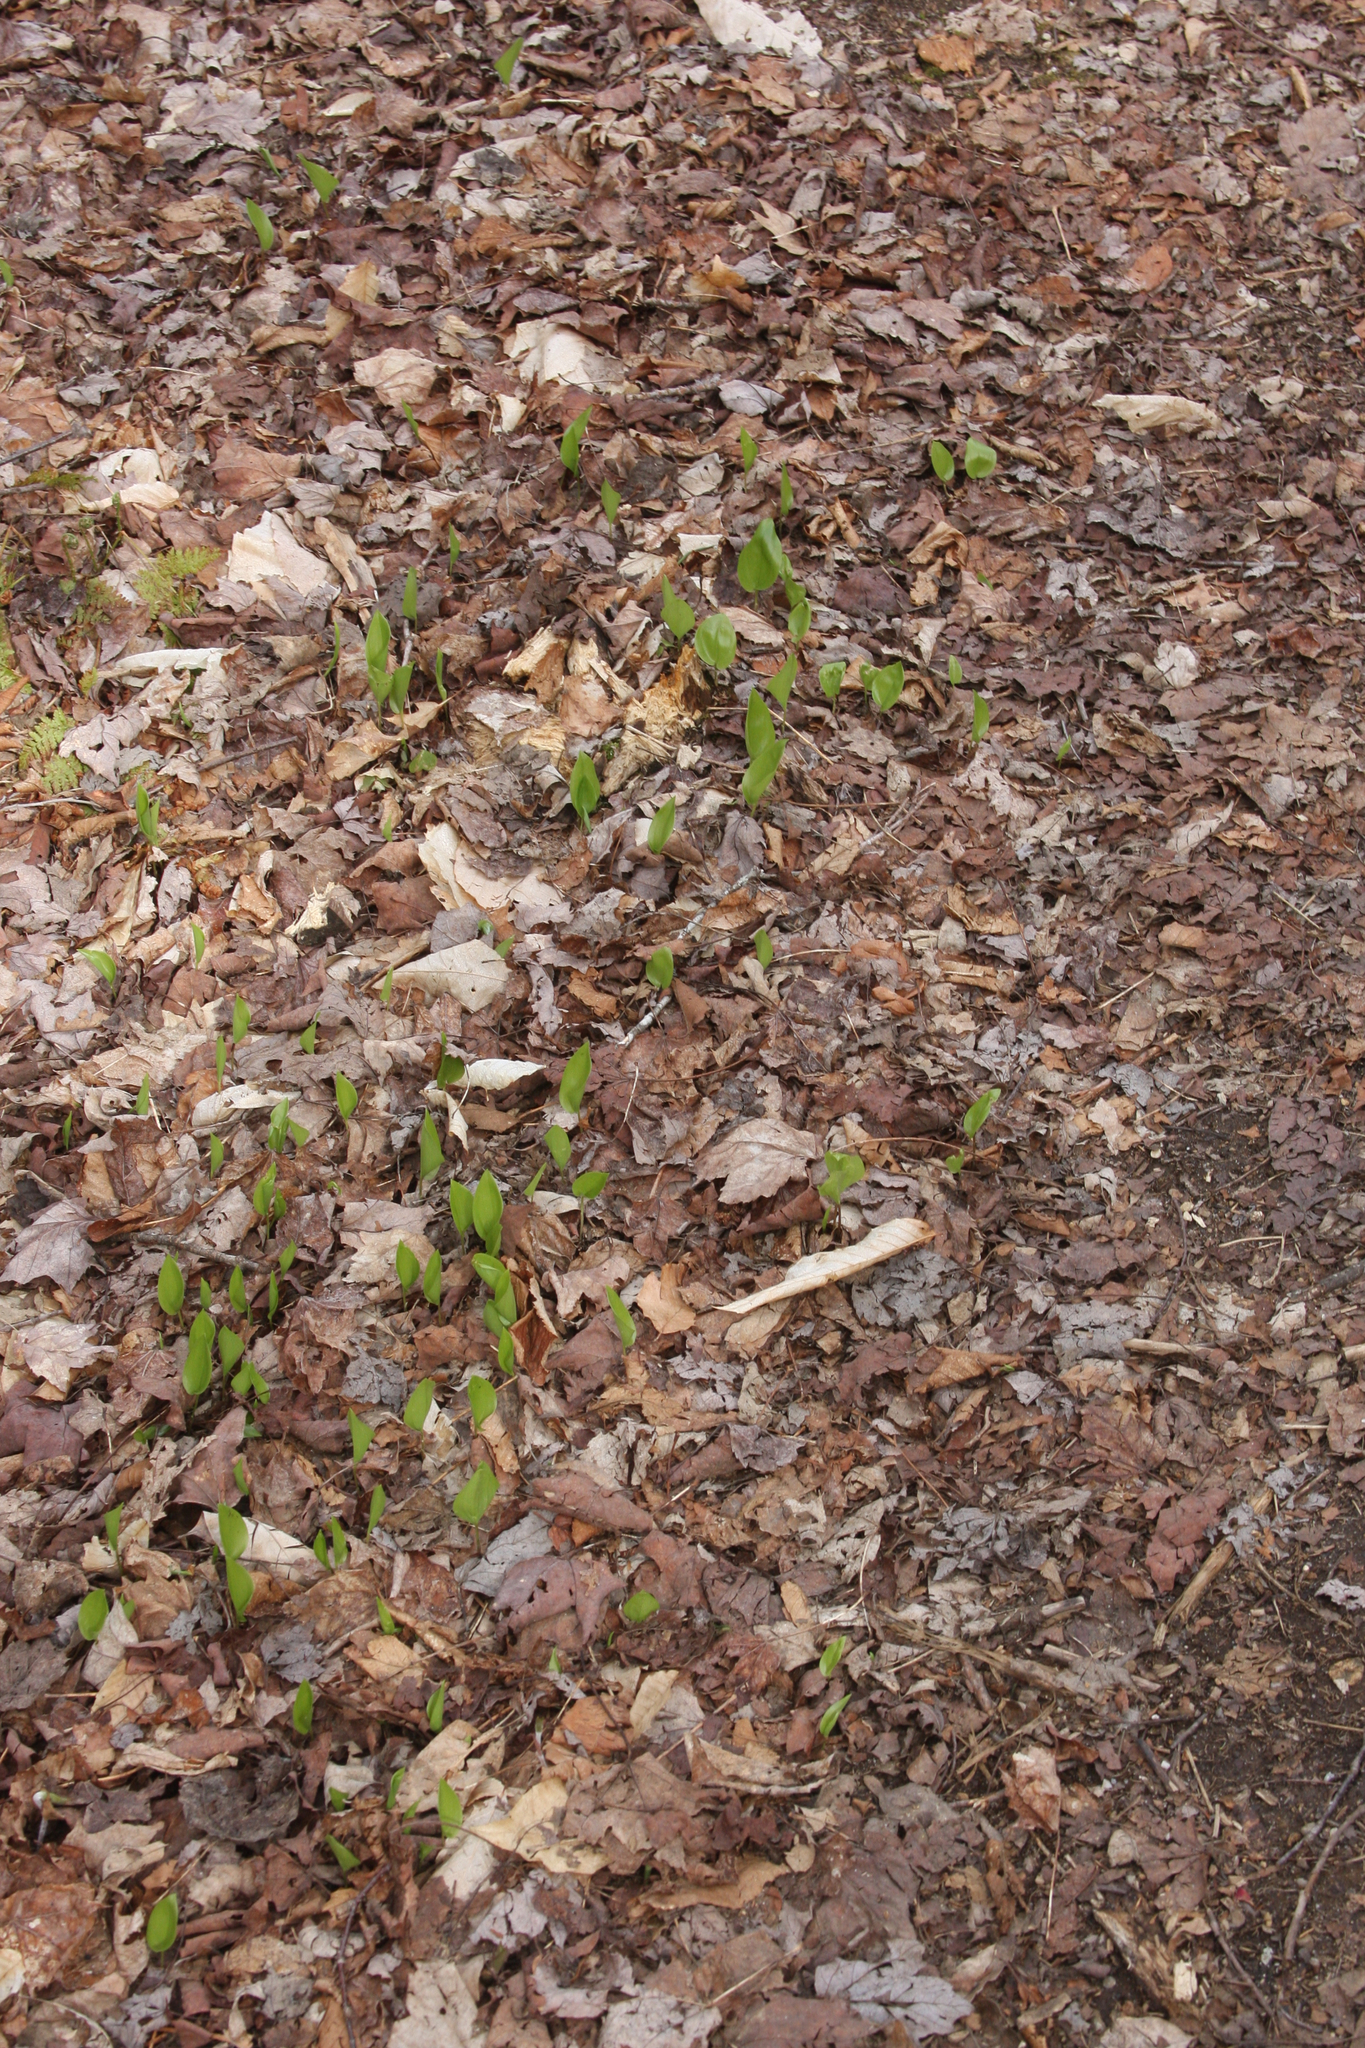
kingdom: Plantae
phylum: Tracheophyta
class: Liliopsida
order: Asparagales
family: Asparagaceae
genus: Maianthemum
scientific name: Maianthemum canadense
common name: False lily-of-the-valley
